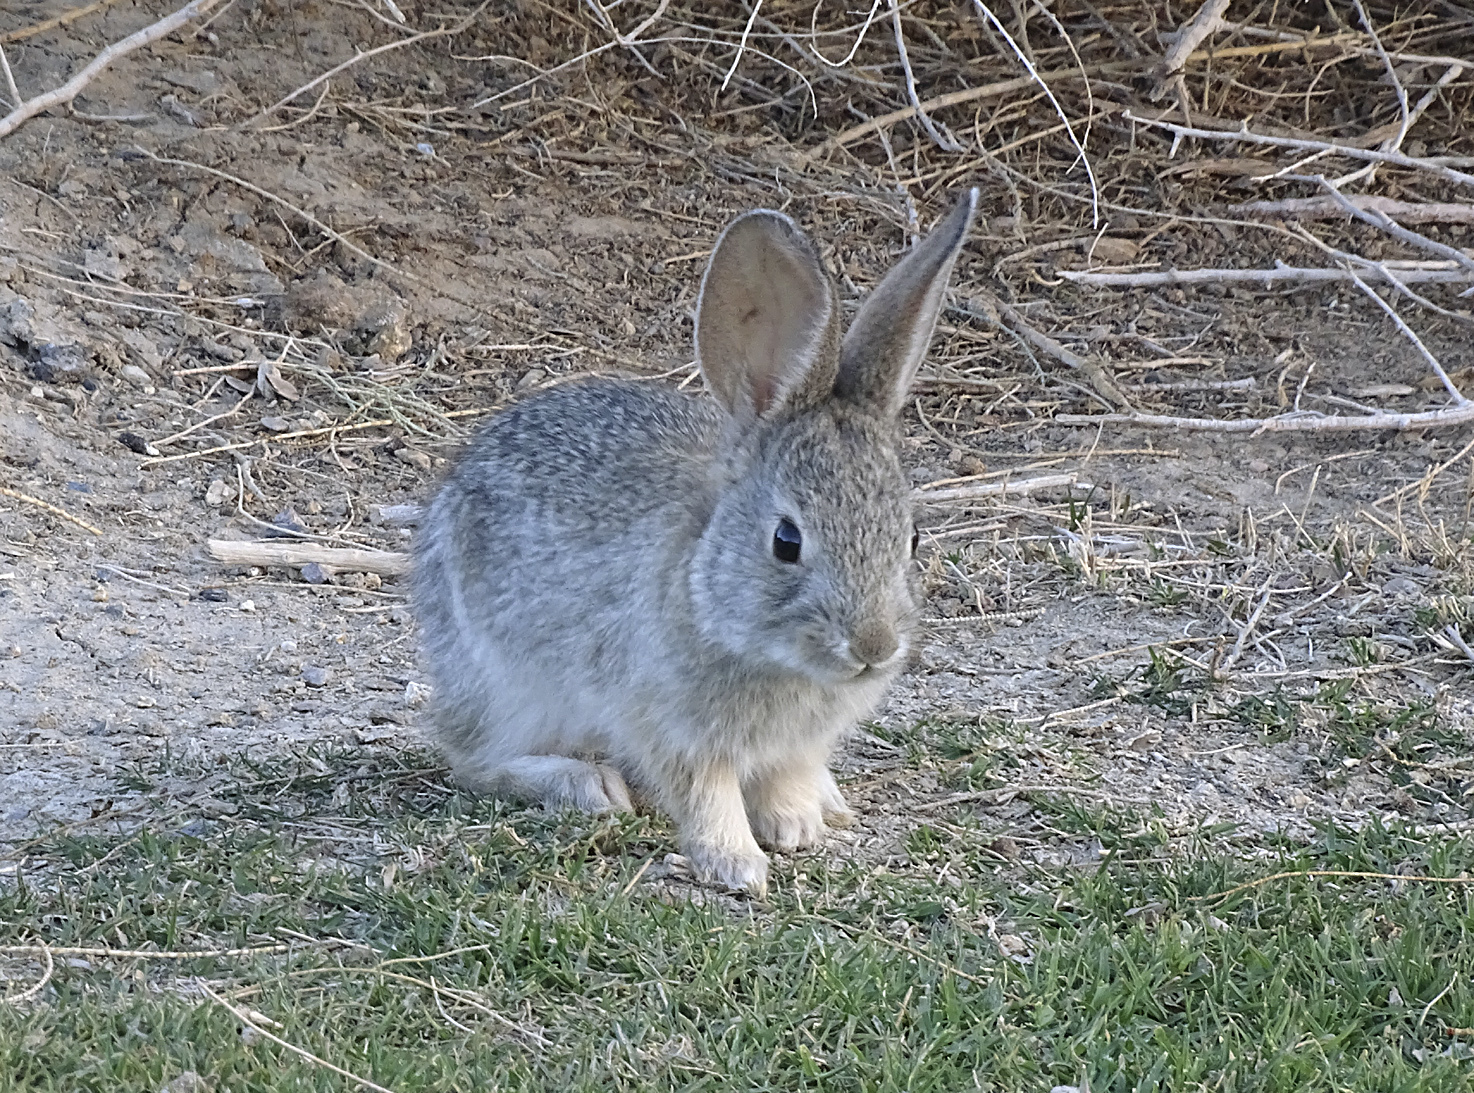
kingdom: Animalia
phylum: Chordata
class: Mammalia
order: Lagomorpha
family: Leporidae
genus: Sylvilagus
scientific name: Sylvilagus audubonii
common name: Desert cottontail
